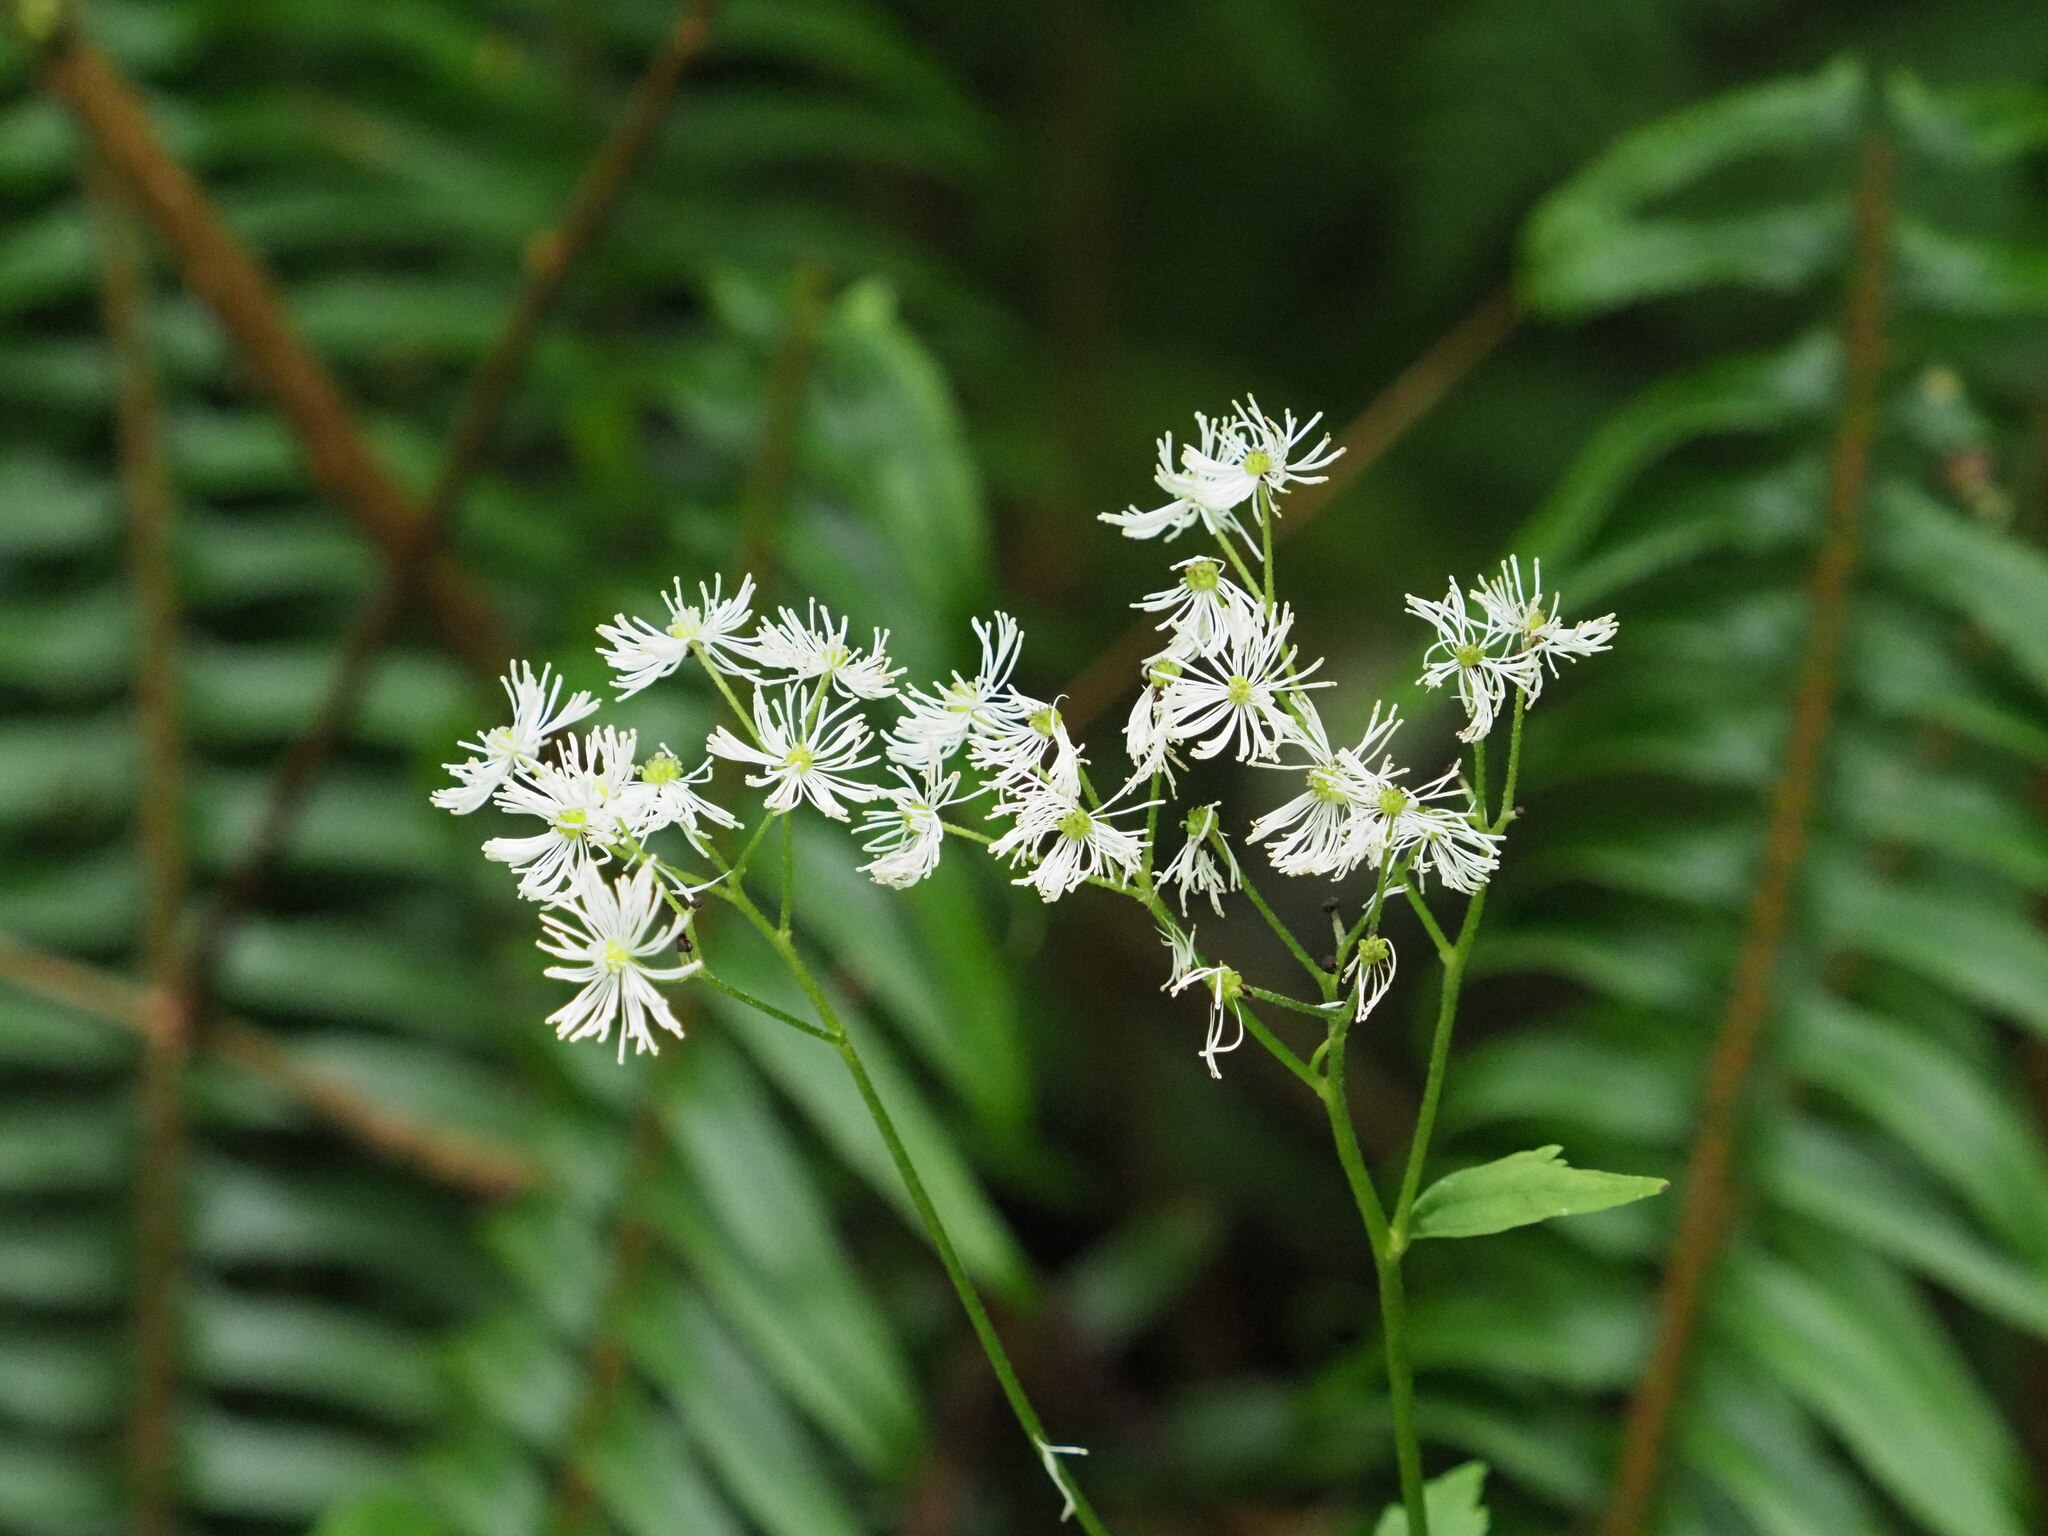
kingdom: Plantae
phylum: Tracheophyta
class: Magnoliopsida
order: Ranunculales
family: Ranunculaceae
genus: Trautvetteria
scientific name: Trautvetteria carolinensis
